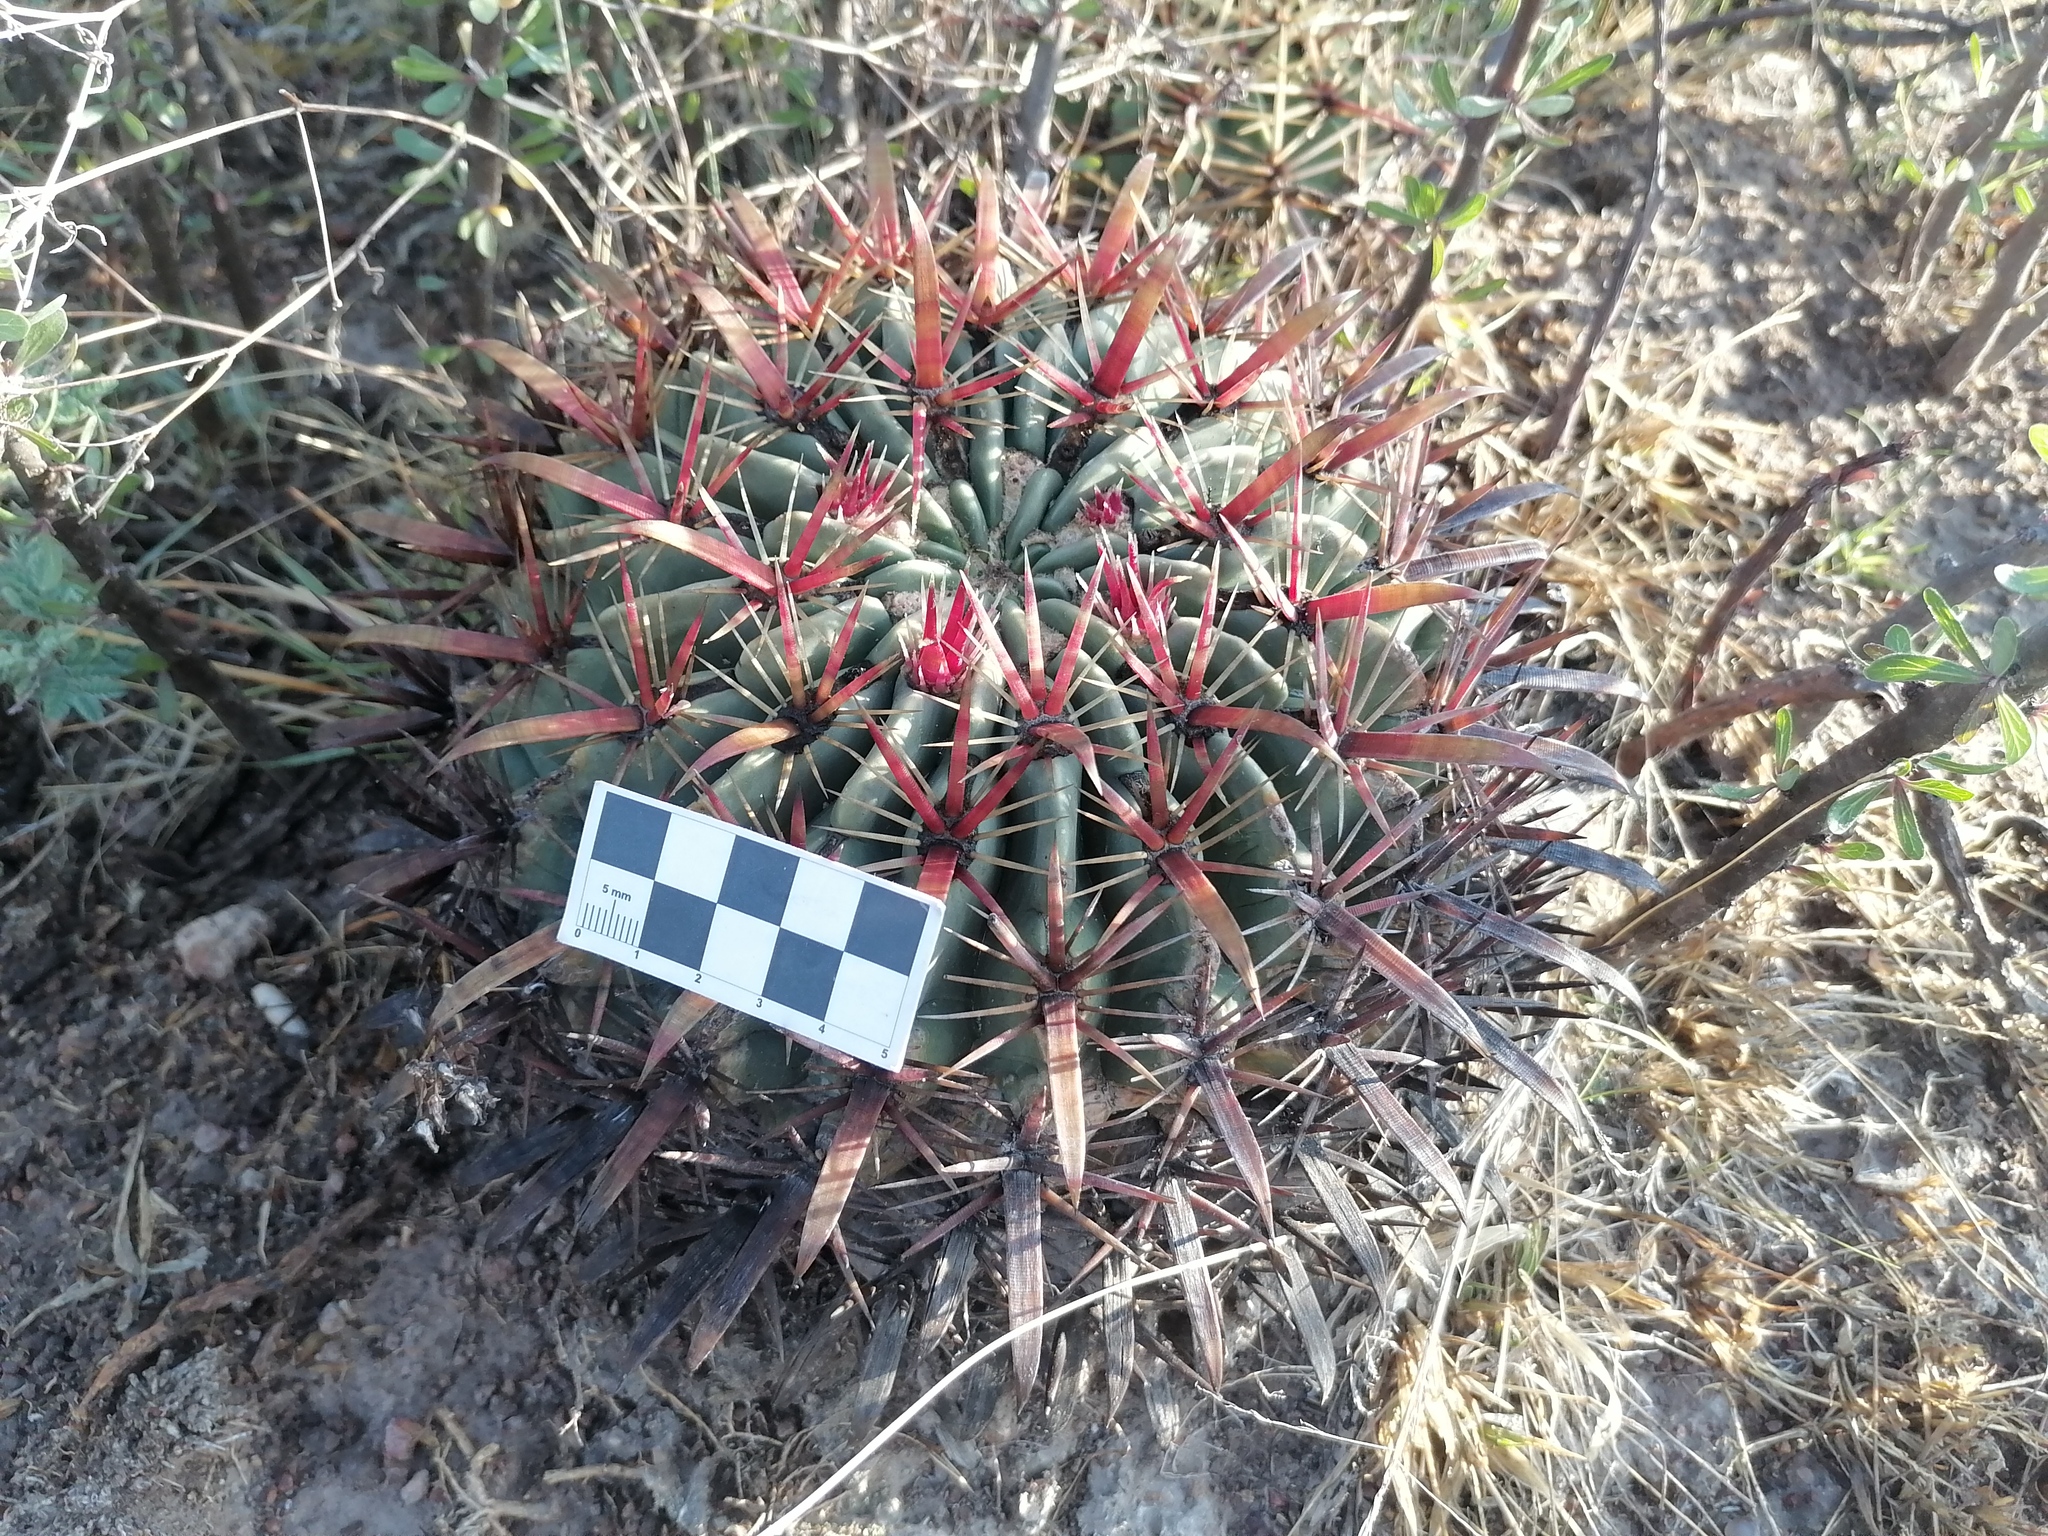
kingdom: Plantae
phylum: Tracheophyta
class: Magnoliopsida
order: Caryophyllales
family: Cactaceae
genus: Ferocactus
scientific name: Ferocactus latispinus
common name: Devil's-tongue cactus
